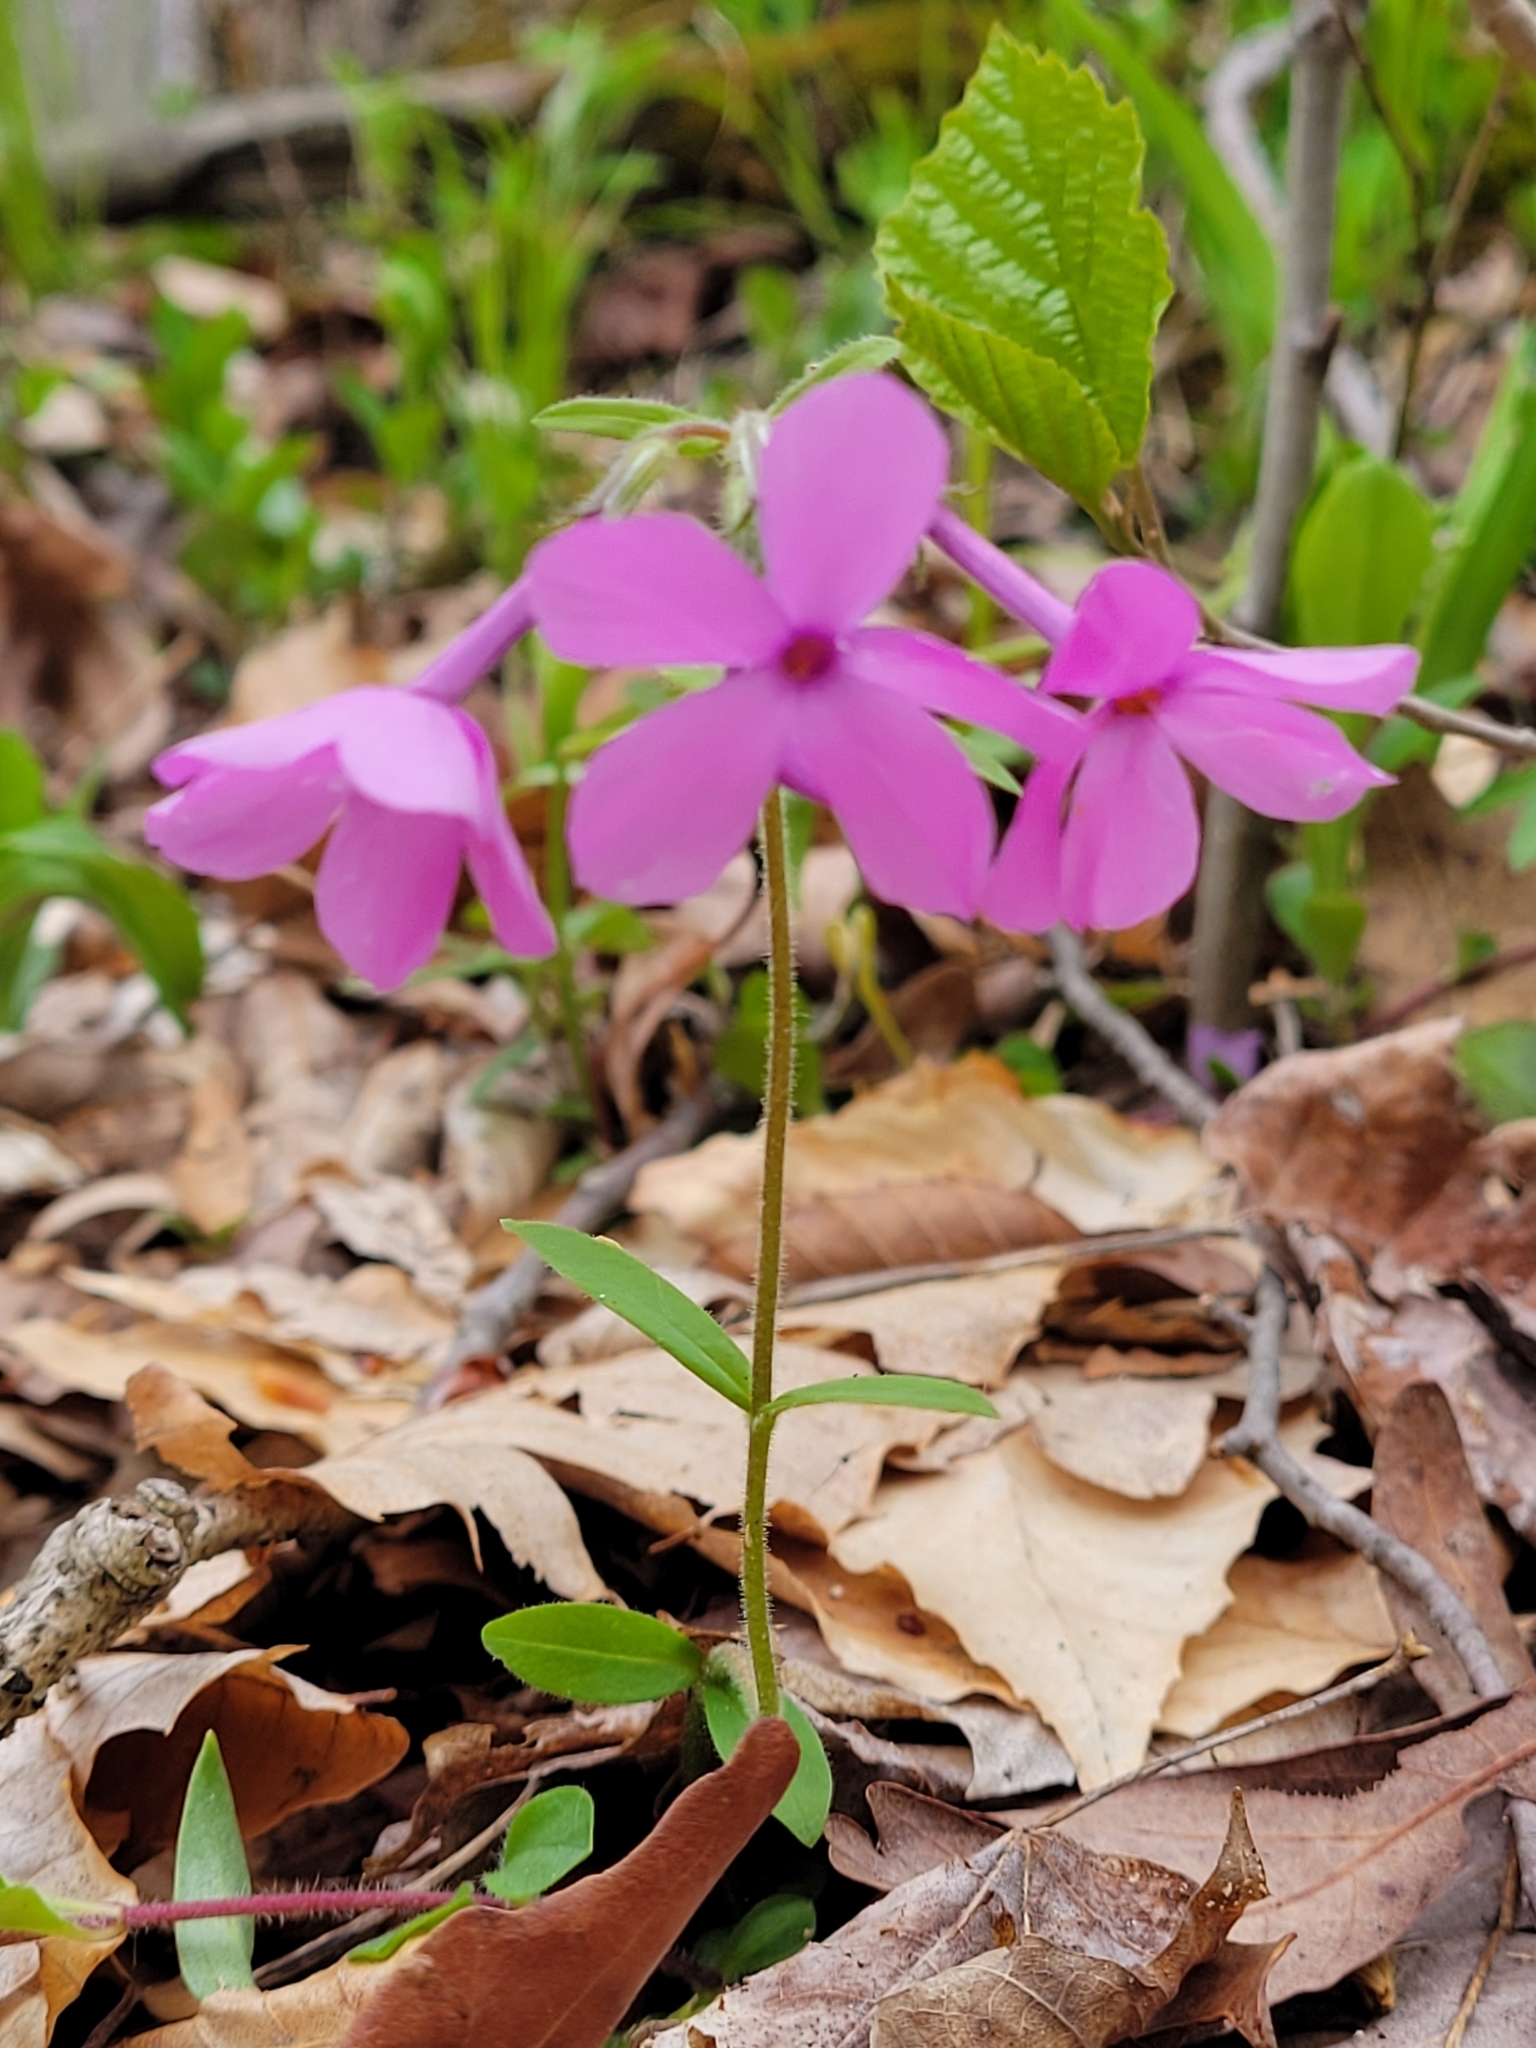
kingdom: Plantae
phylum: Tracheophyta
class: Magnoliopsida
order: Ericales
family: Polemoniaceae
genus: Phlox
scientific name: Phlox stolonifera
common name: Creeping phlox
